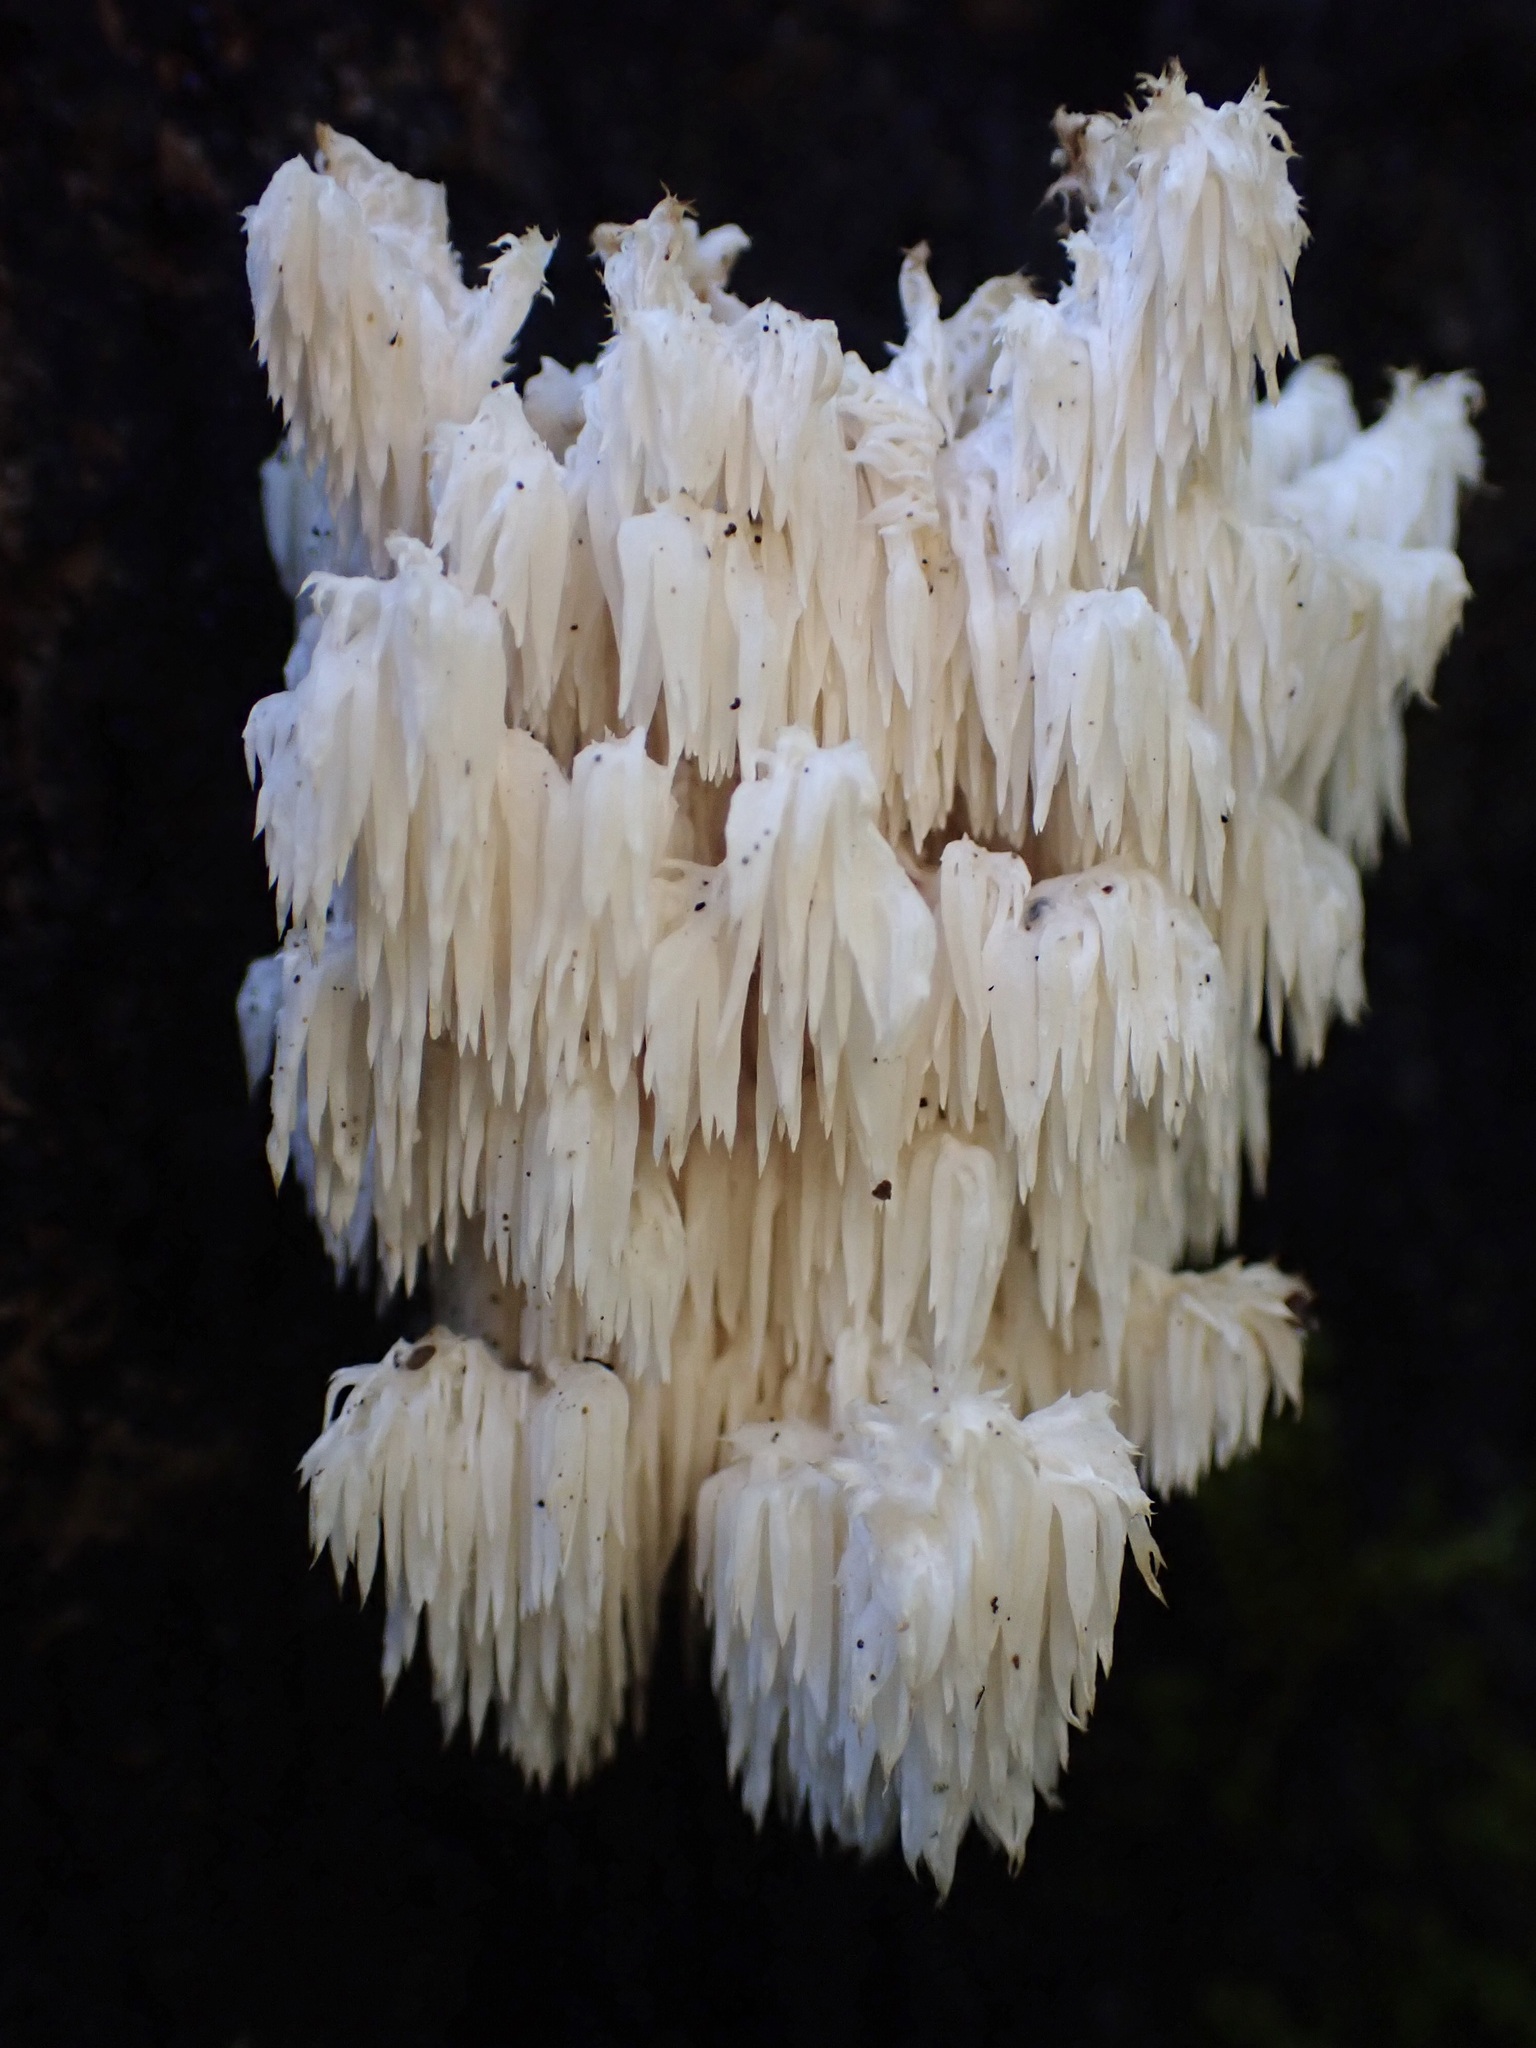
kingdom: Fungi
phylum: Basidiomycota
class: Agaricomycetes
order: Russulales
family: Hericiaceae
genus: Hericium
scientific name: Hericium coralloides
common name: Coral tooth
